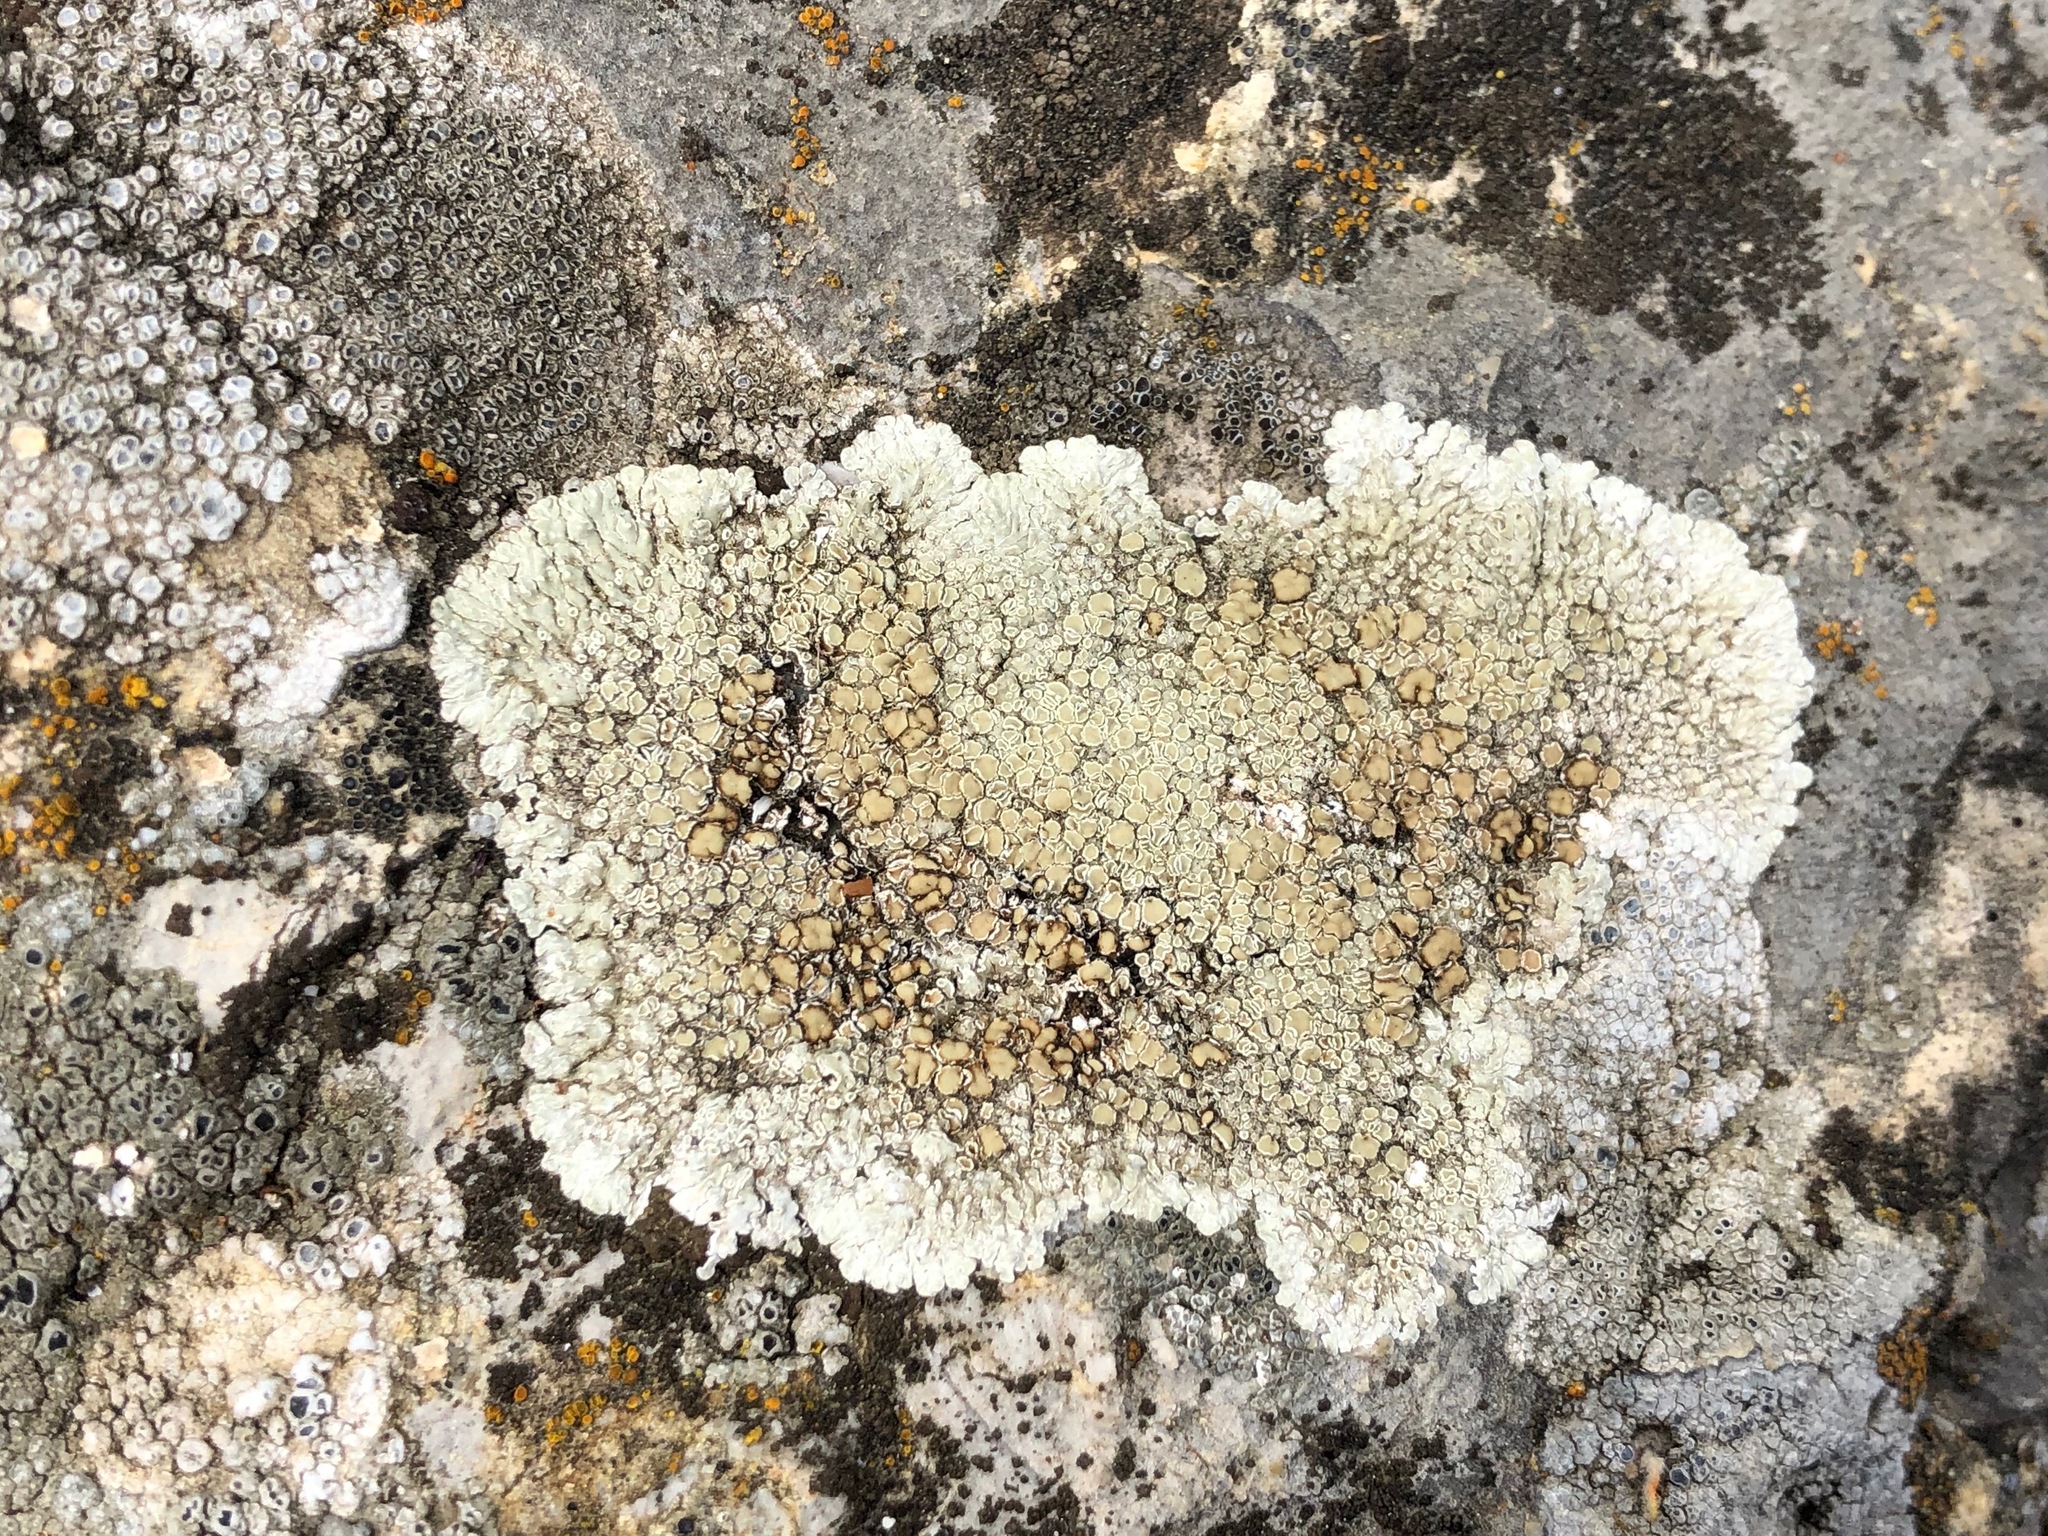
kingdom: Fungi
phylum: Ascomycota
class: Lecanoromycetes
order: Lecanorales
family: Lecanoraceae
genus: Protoparmeliopsis
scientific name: Protoparmeliopsis muralis
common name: Stonewall rim lichen
